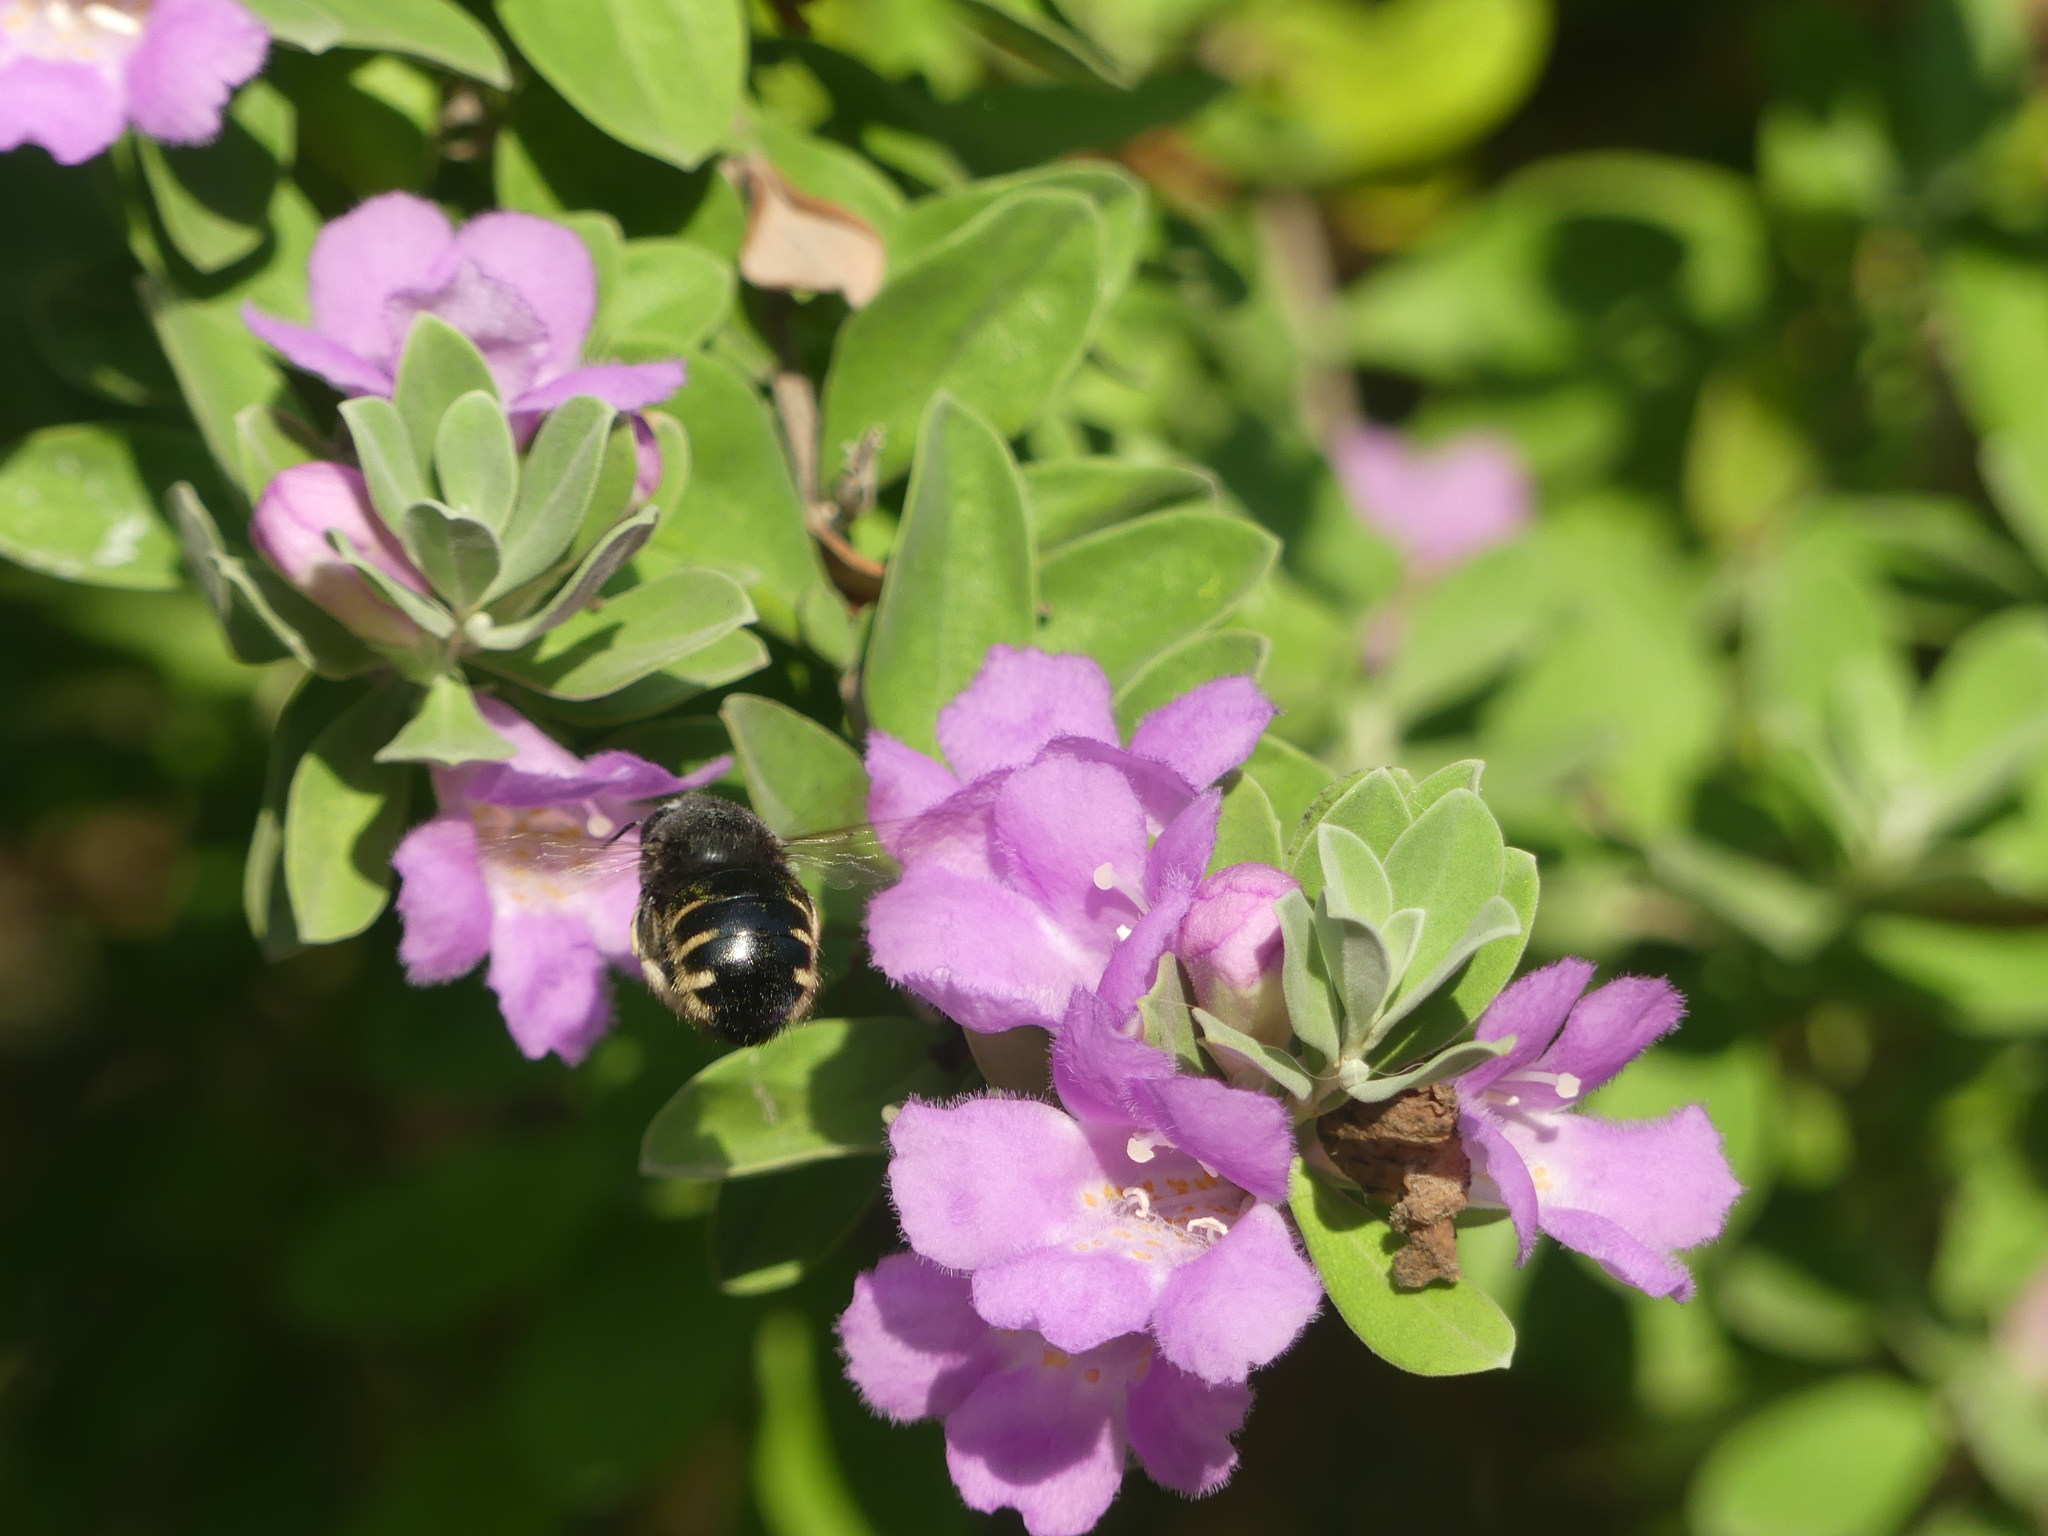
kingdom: Animalia
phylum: Arthropoda
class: Insecta
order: Hymenoptera
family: Apidae
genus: Xylocopa
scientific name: Xylocopa tabaniformis
